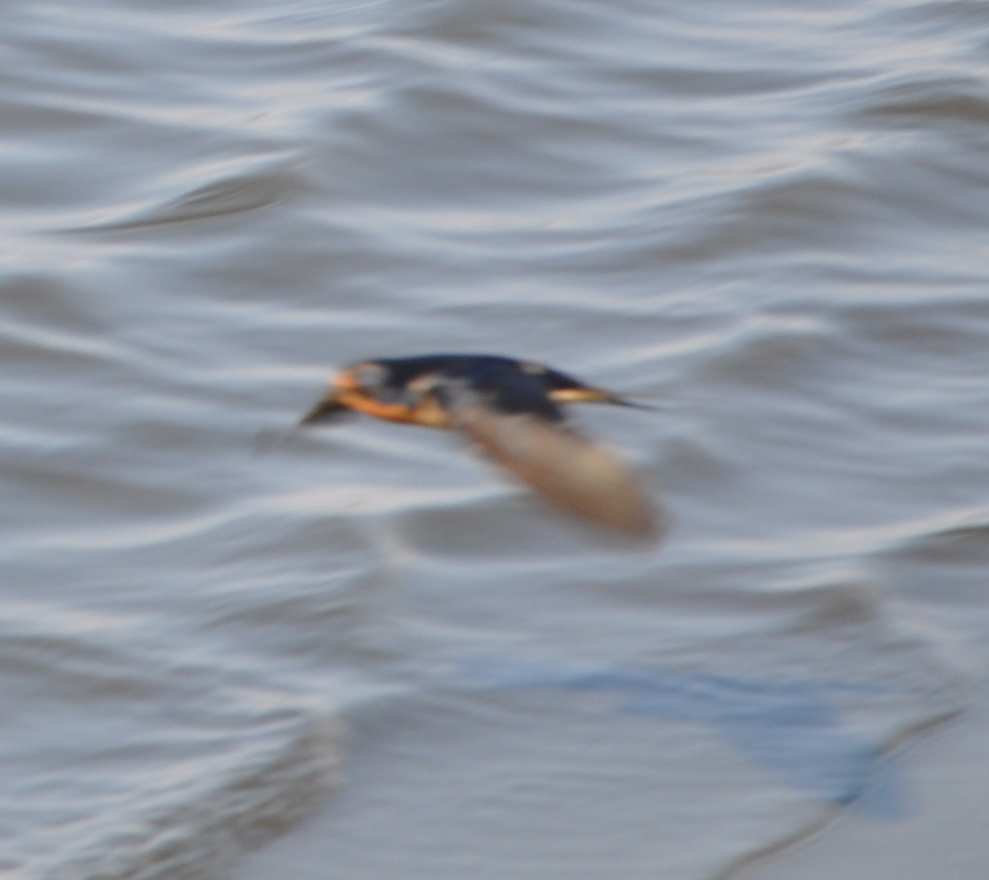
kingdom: Animalia
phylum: Chordata
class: Aves
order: Passeriformes
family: Hirundinidae
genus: Hirundo
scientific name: Hirundo rustica
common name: Barn swallow
